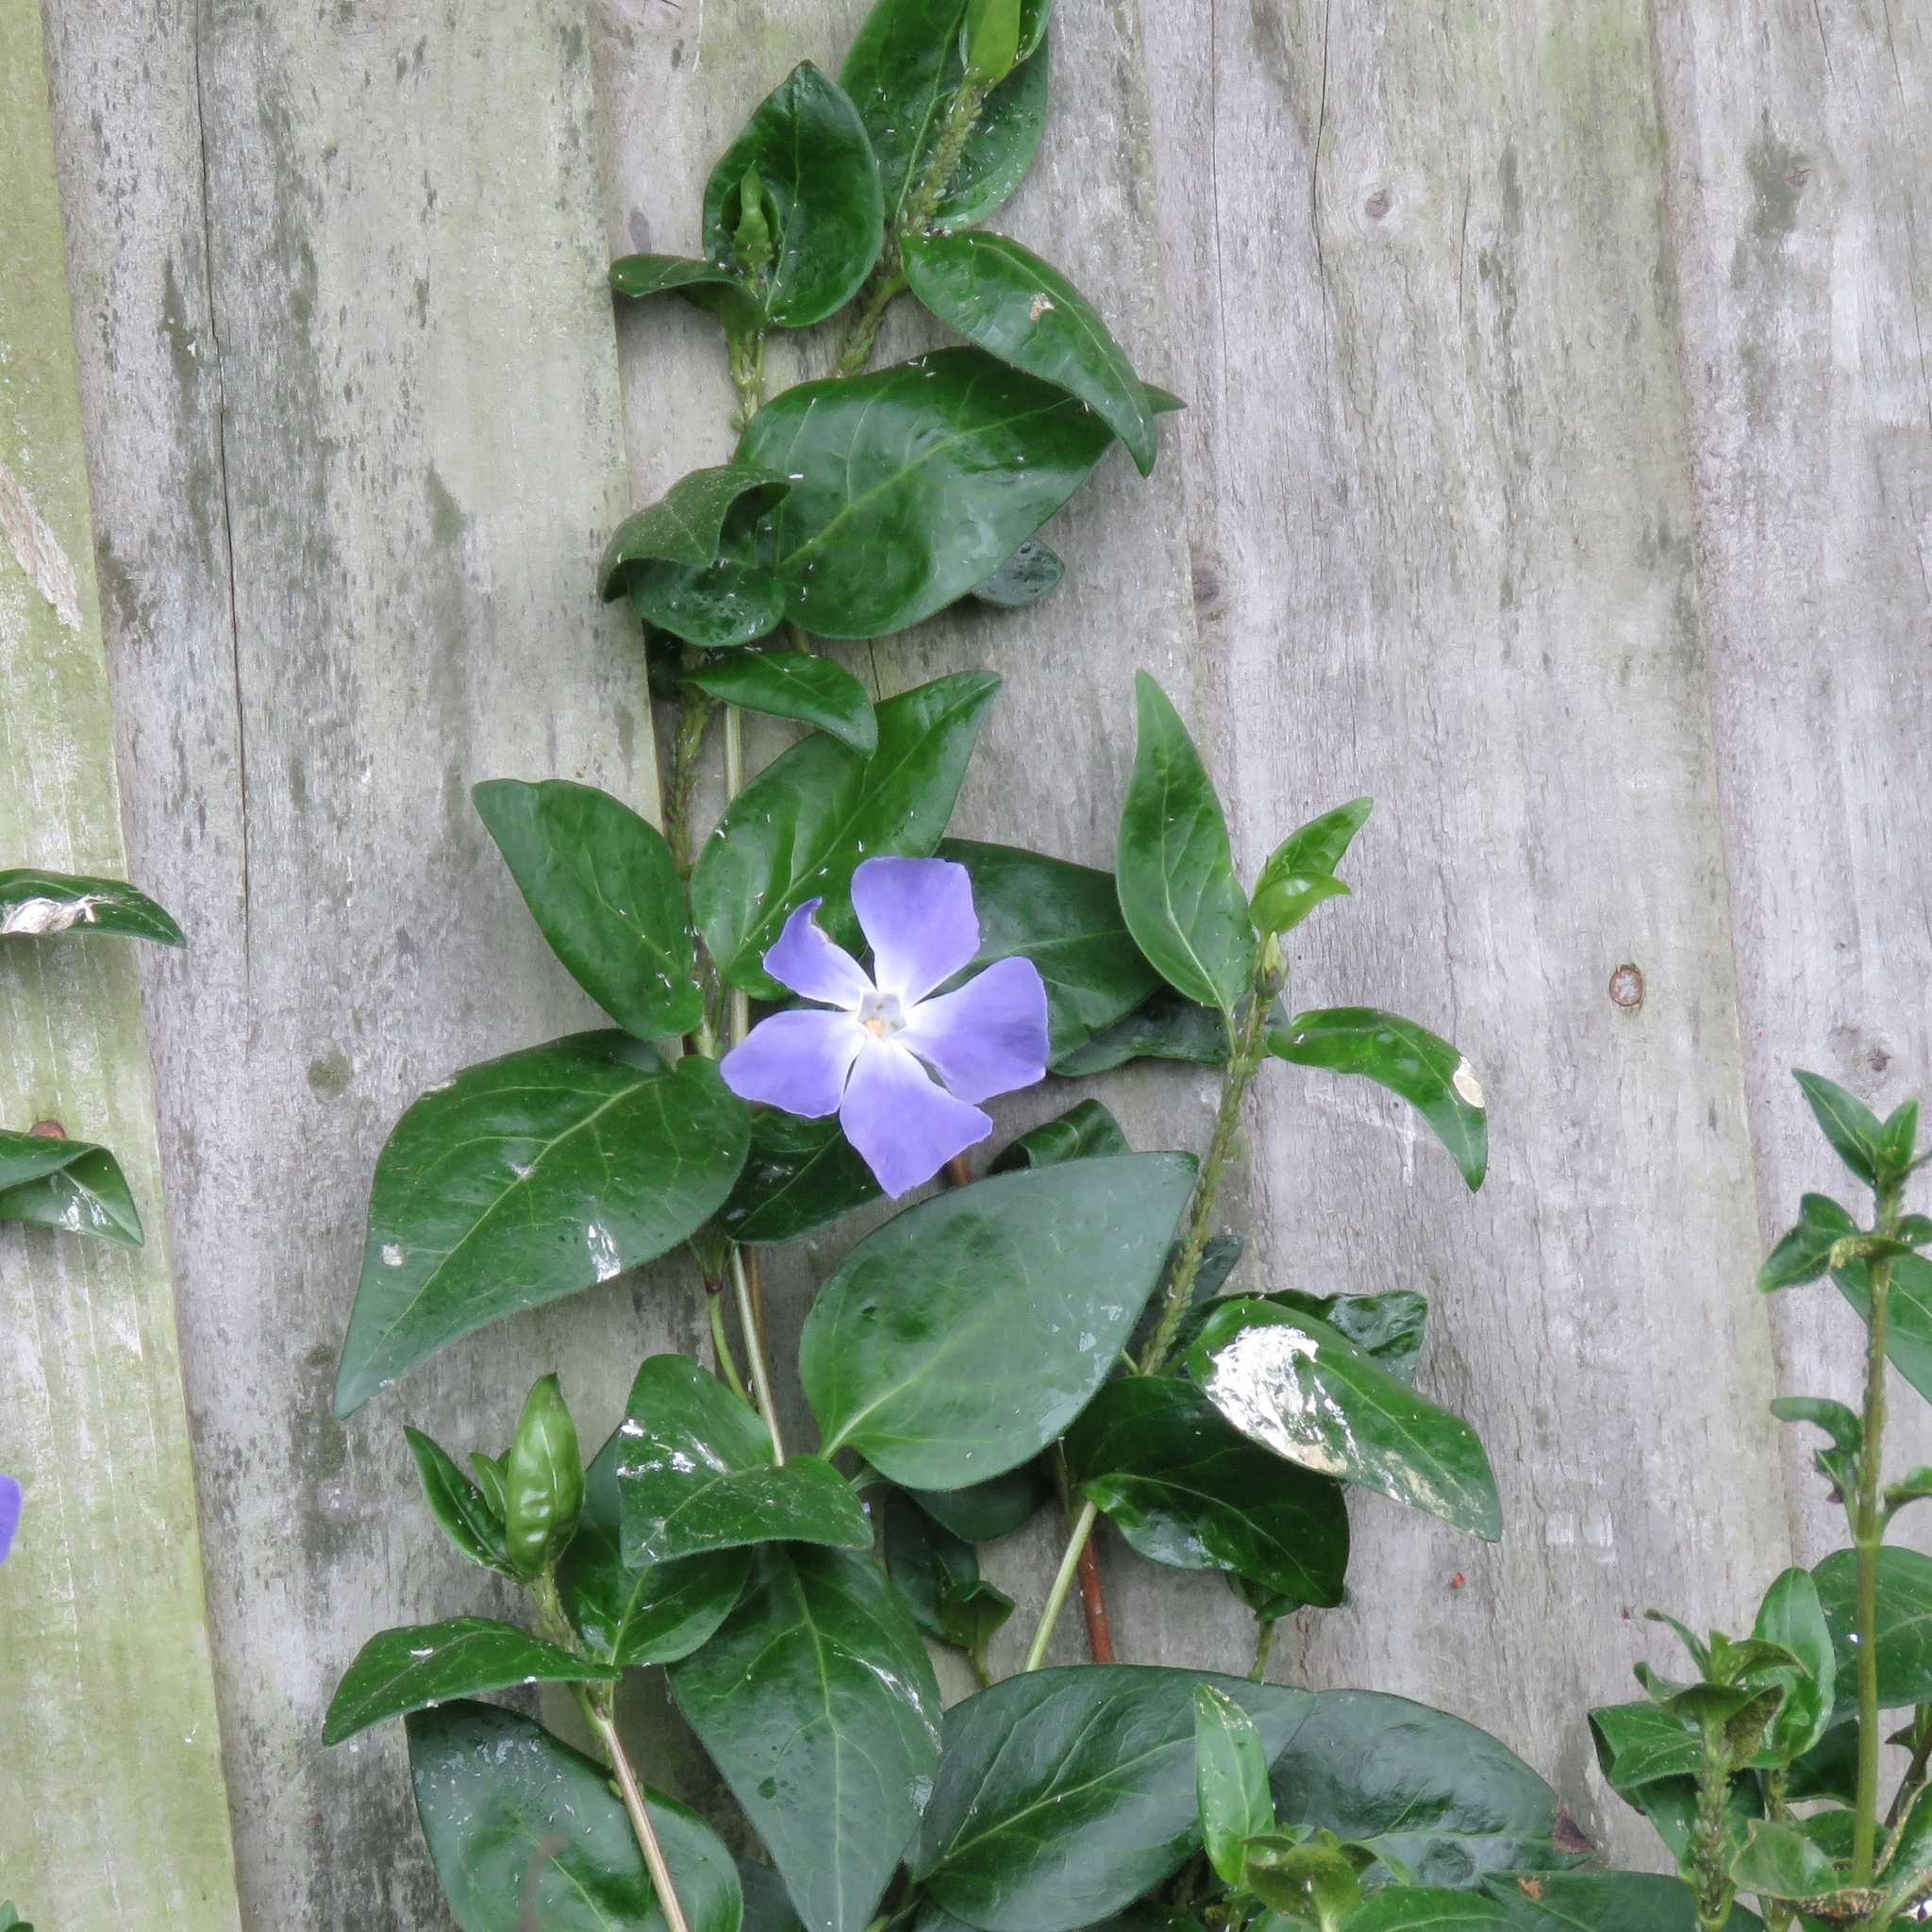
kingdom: Plantae
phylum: Tracheophyta
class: Magnoliopsida
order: Gentianales
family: Apocynaceae
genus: Vinca
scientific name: Vinca major
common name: Greater periwinkle
